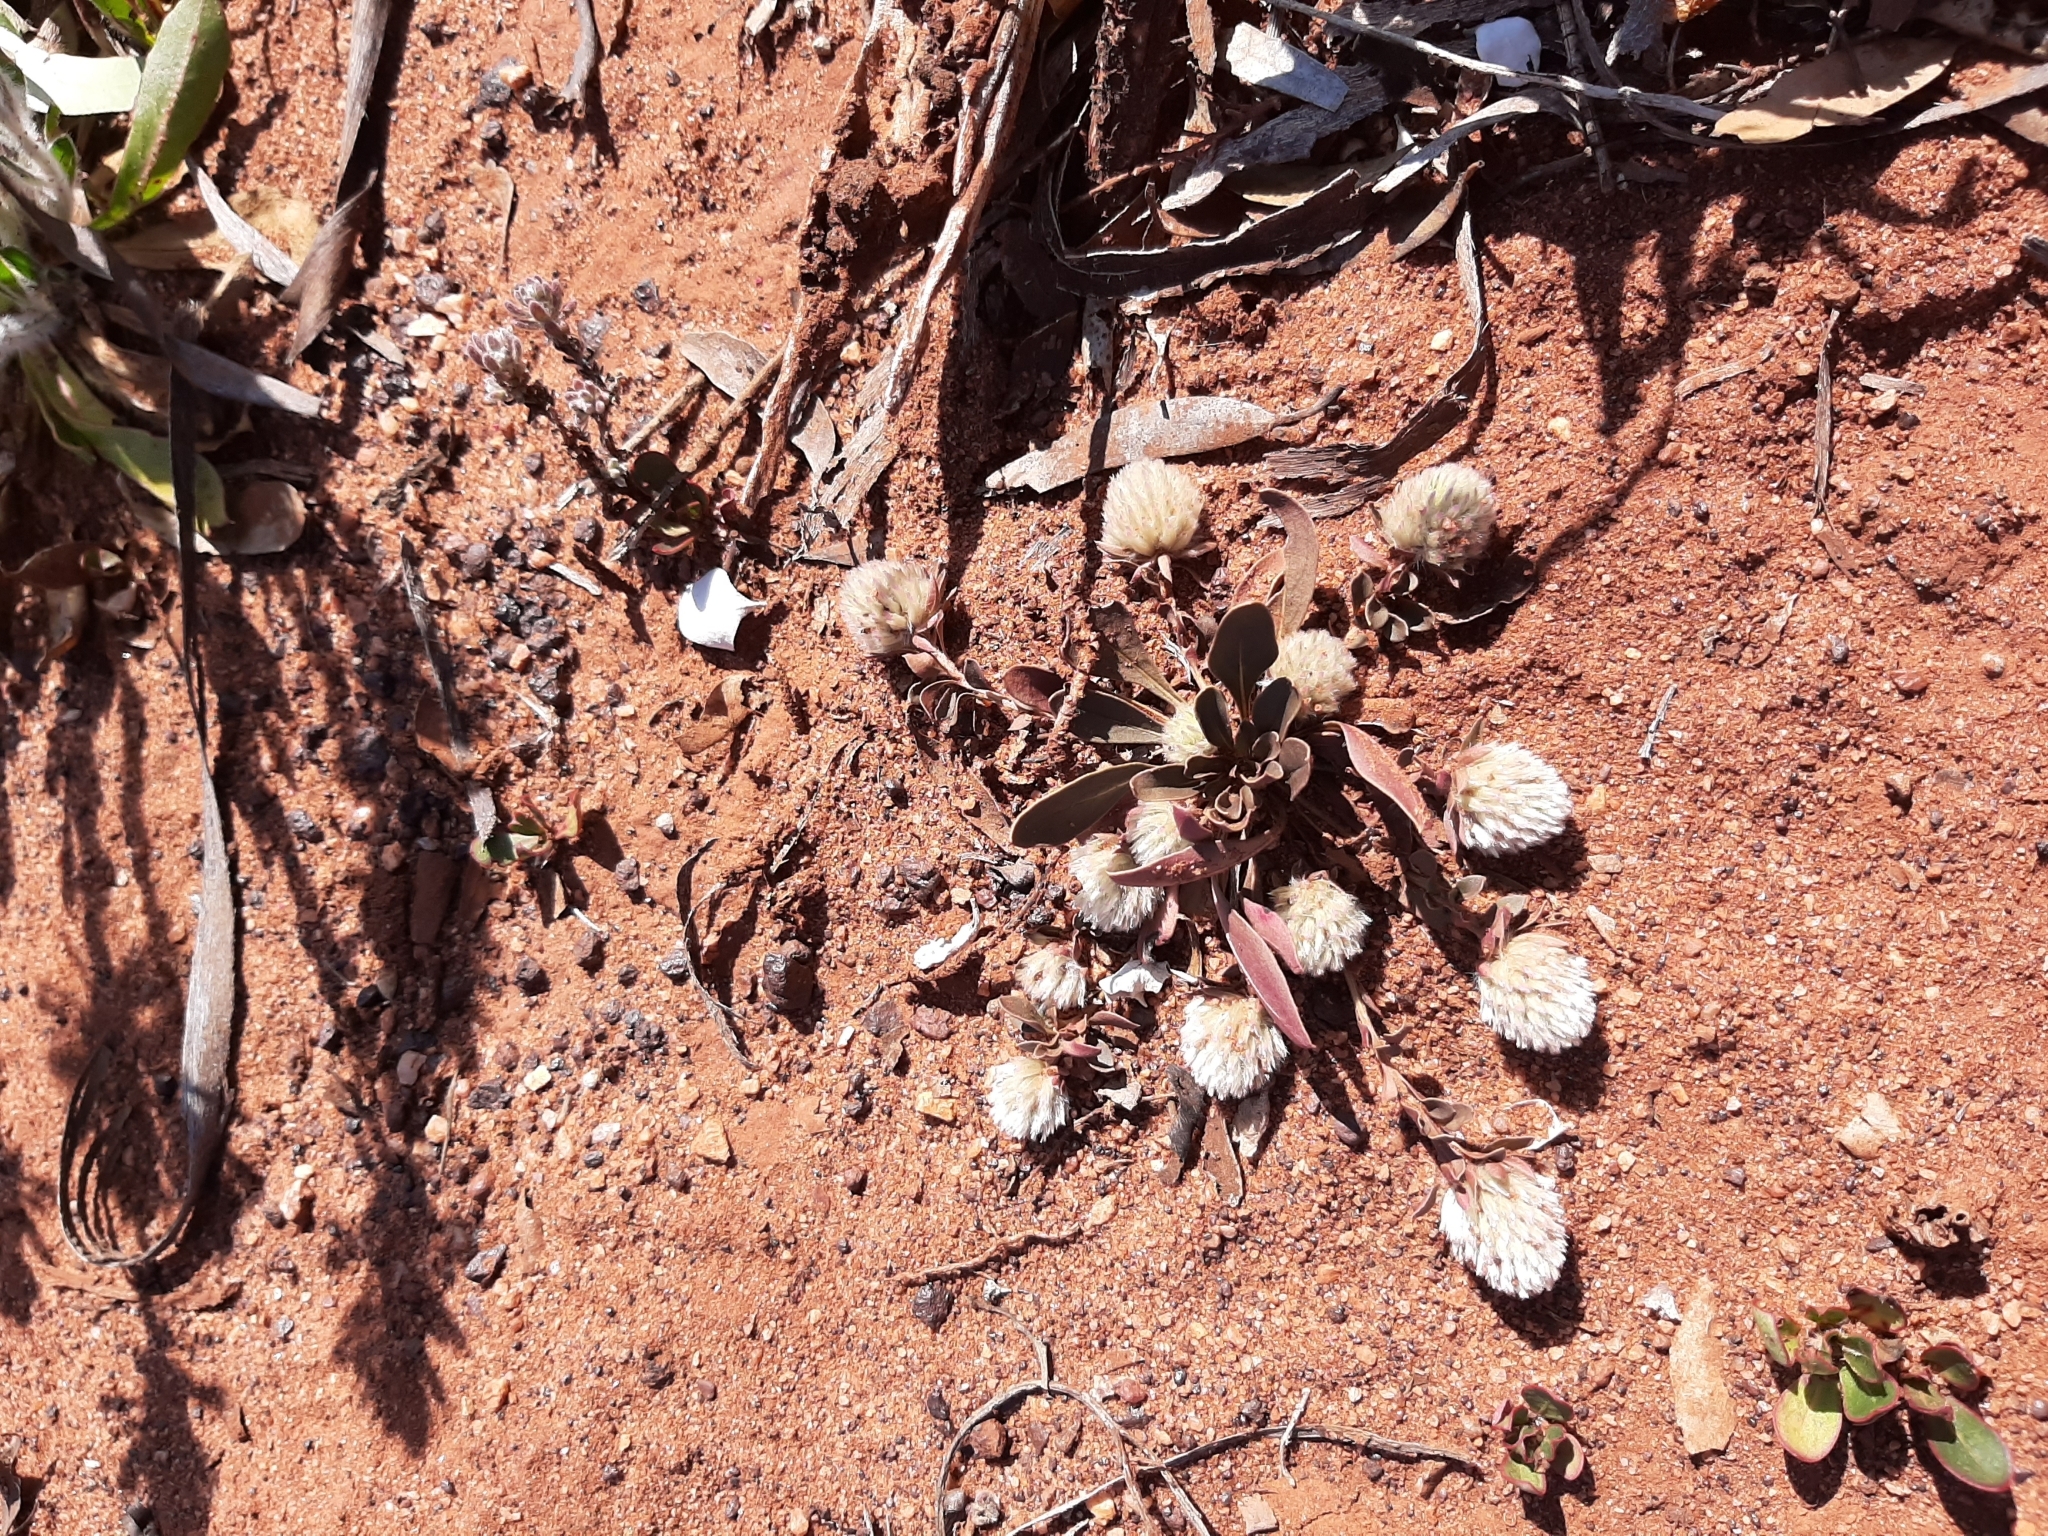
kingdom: Plantae
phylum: Tracheophyta
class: Magnoliopsida
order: Caryophyllales
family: Amaranthaceae
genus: Ptilotus
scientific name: Ptilotus holosericeus
